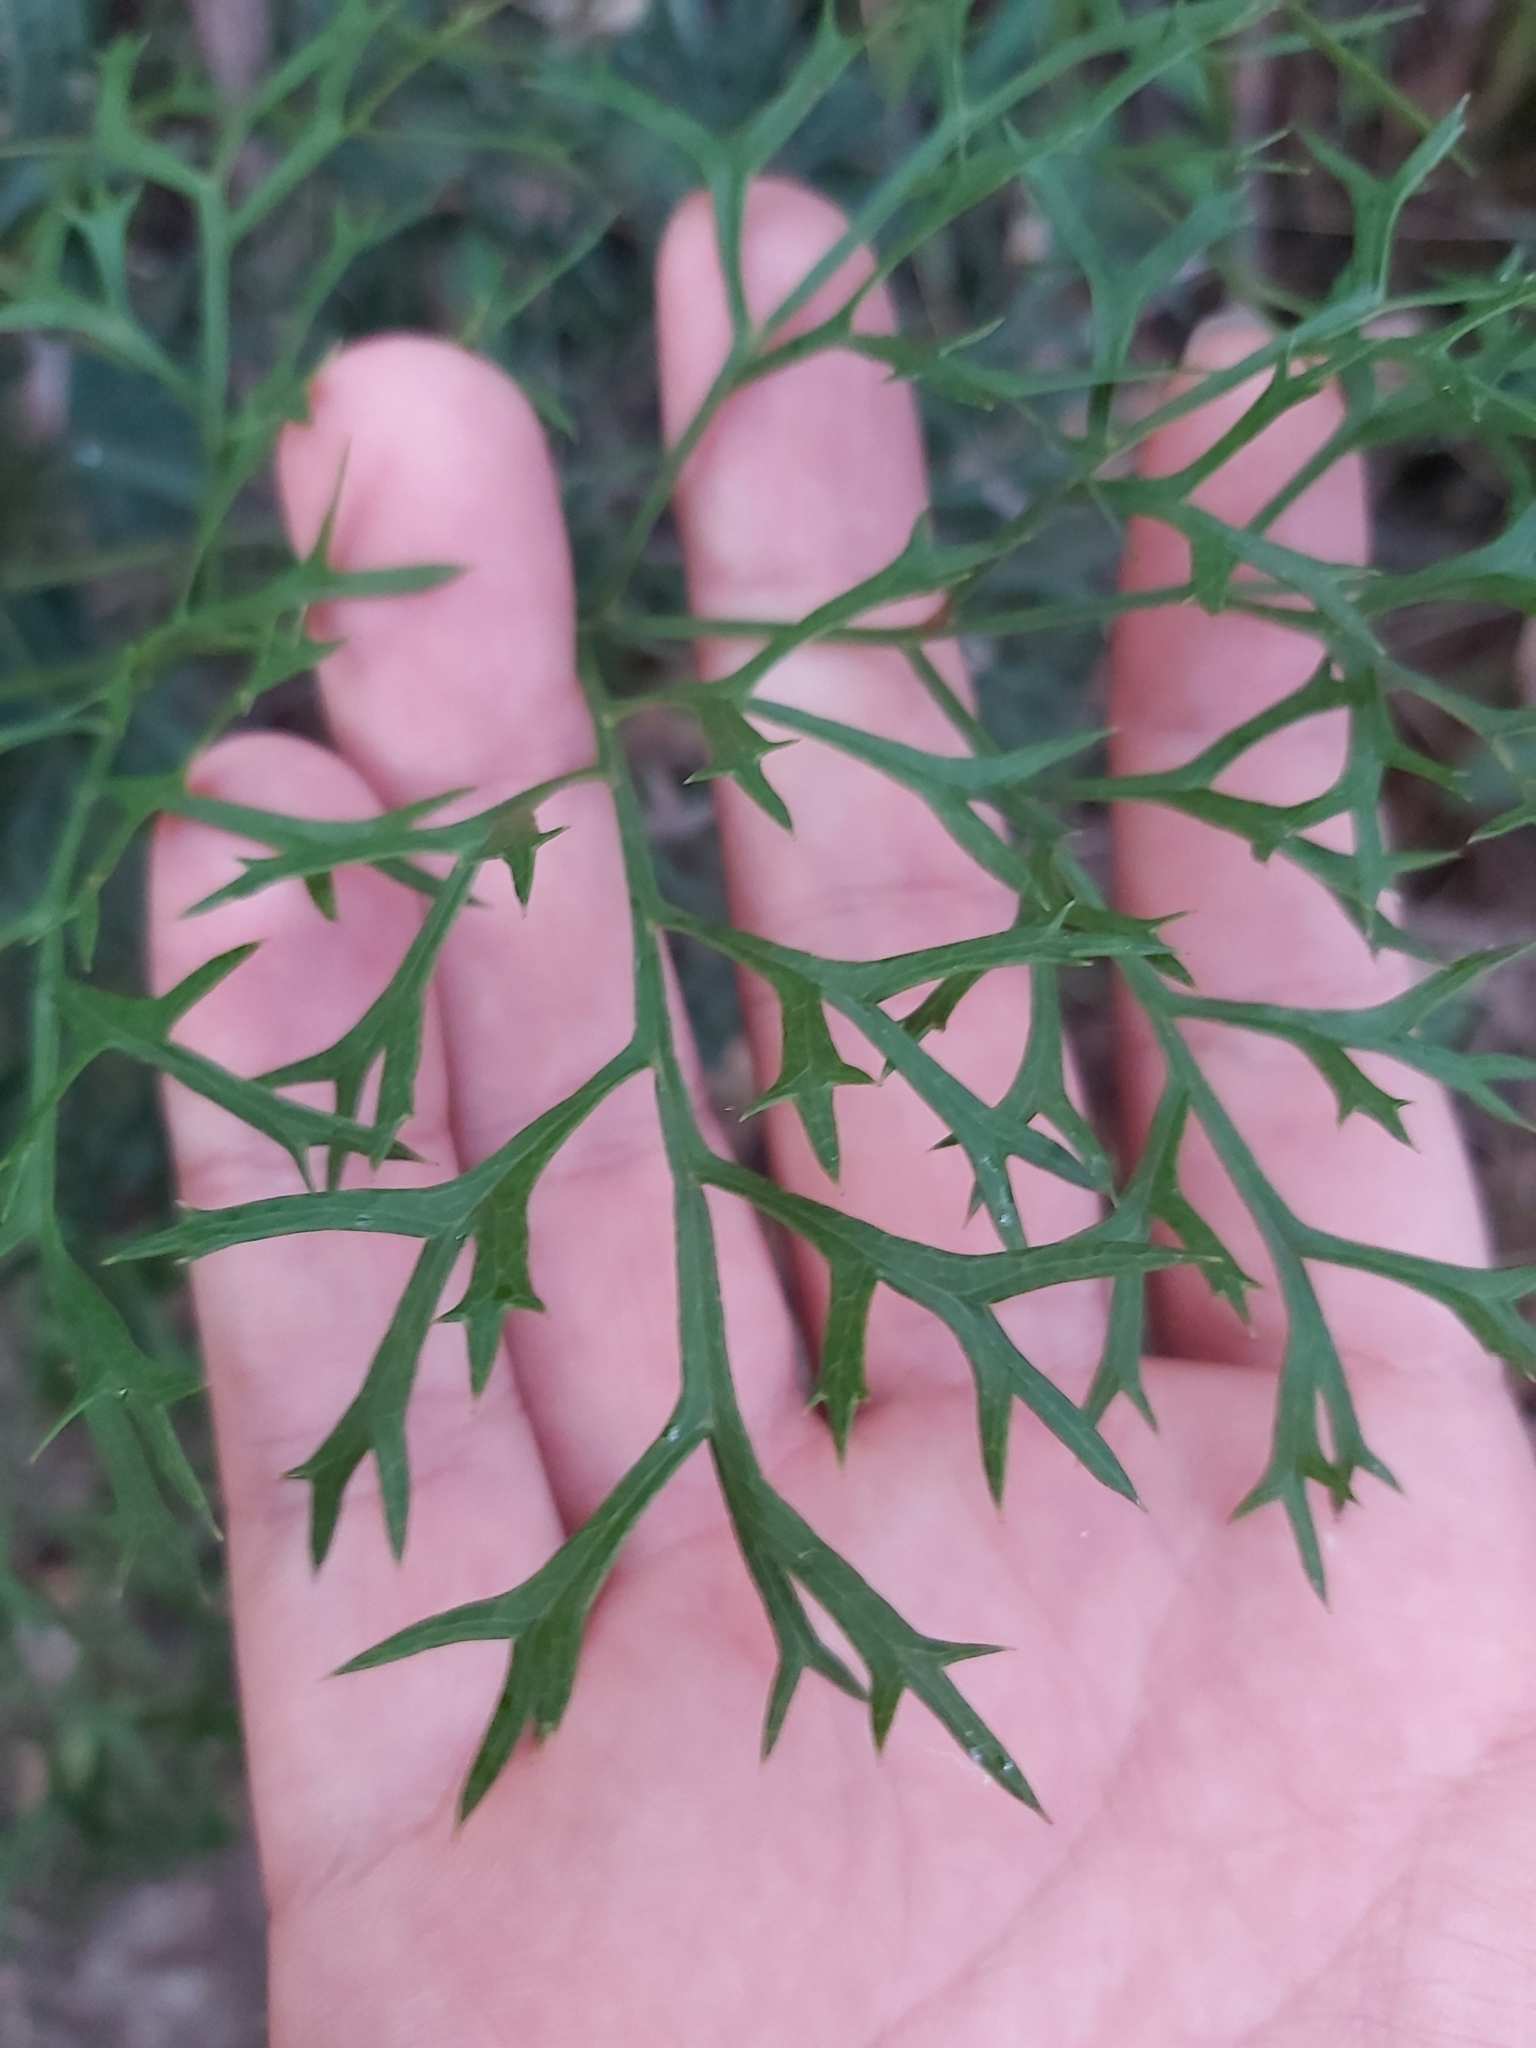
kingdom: Plantae
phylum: Tracheophyta
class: Magnoliopsida
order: Proteales
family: Proteaceae
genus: Lomatia
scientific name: Lomatia silaifolia
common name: Crinklebush
